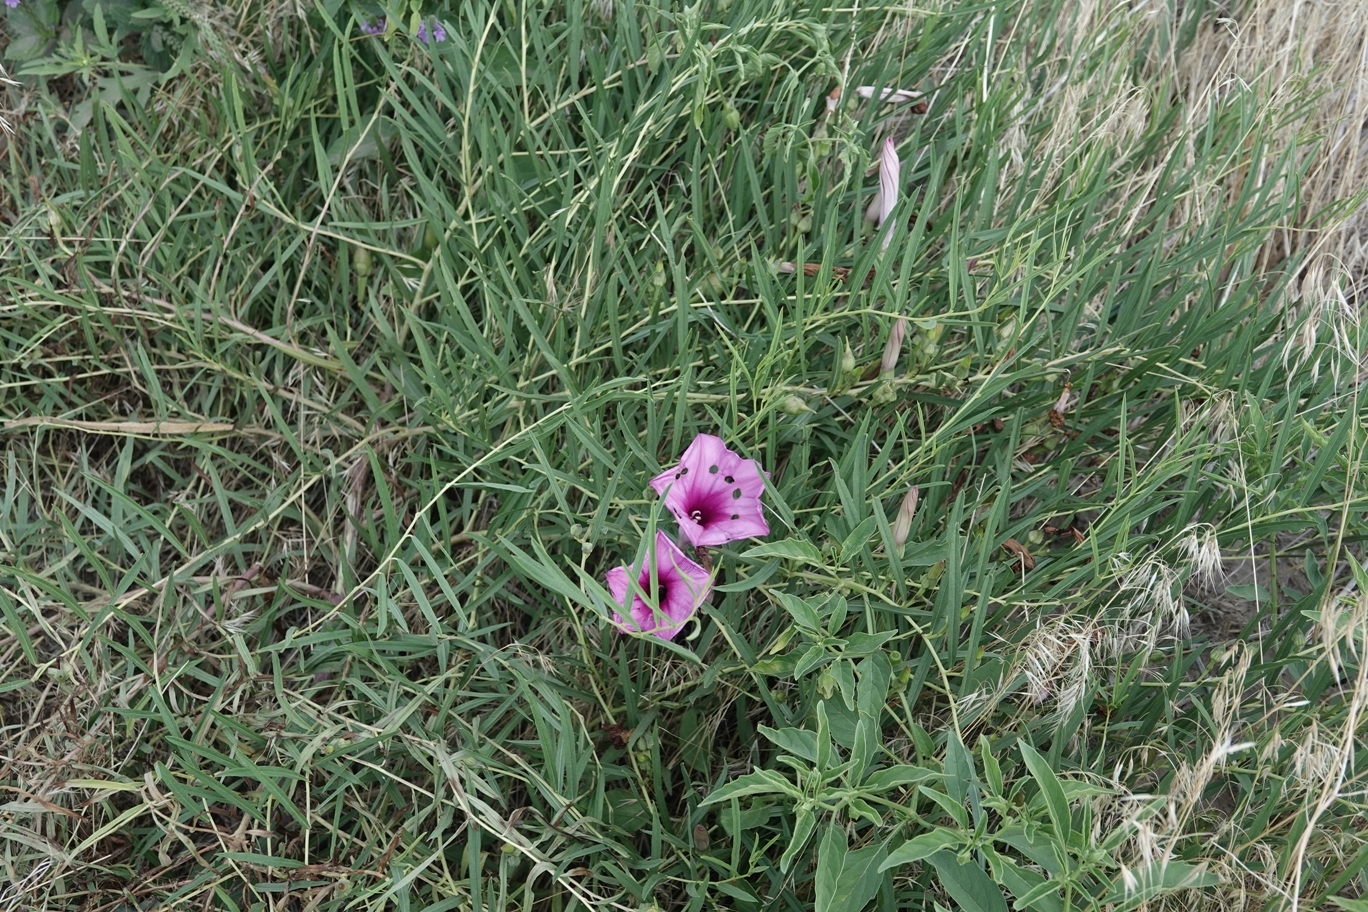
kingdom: Plantae
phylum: Tracheophyta
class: Magnoliopsida
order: Solanales
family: Convolvulaceae
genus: Ipomoea
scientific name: Ipomoea leptophylla
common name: Bush moonflower
